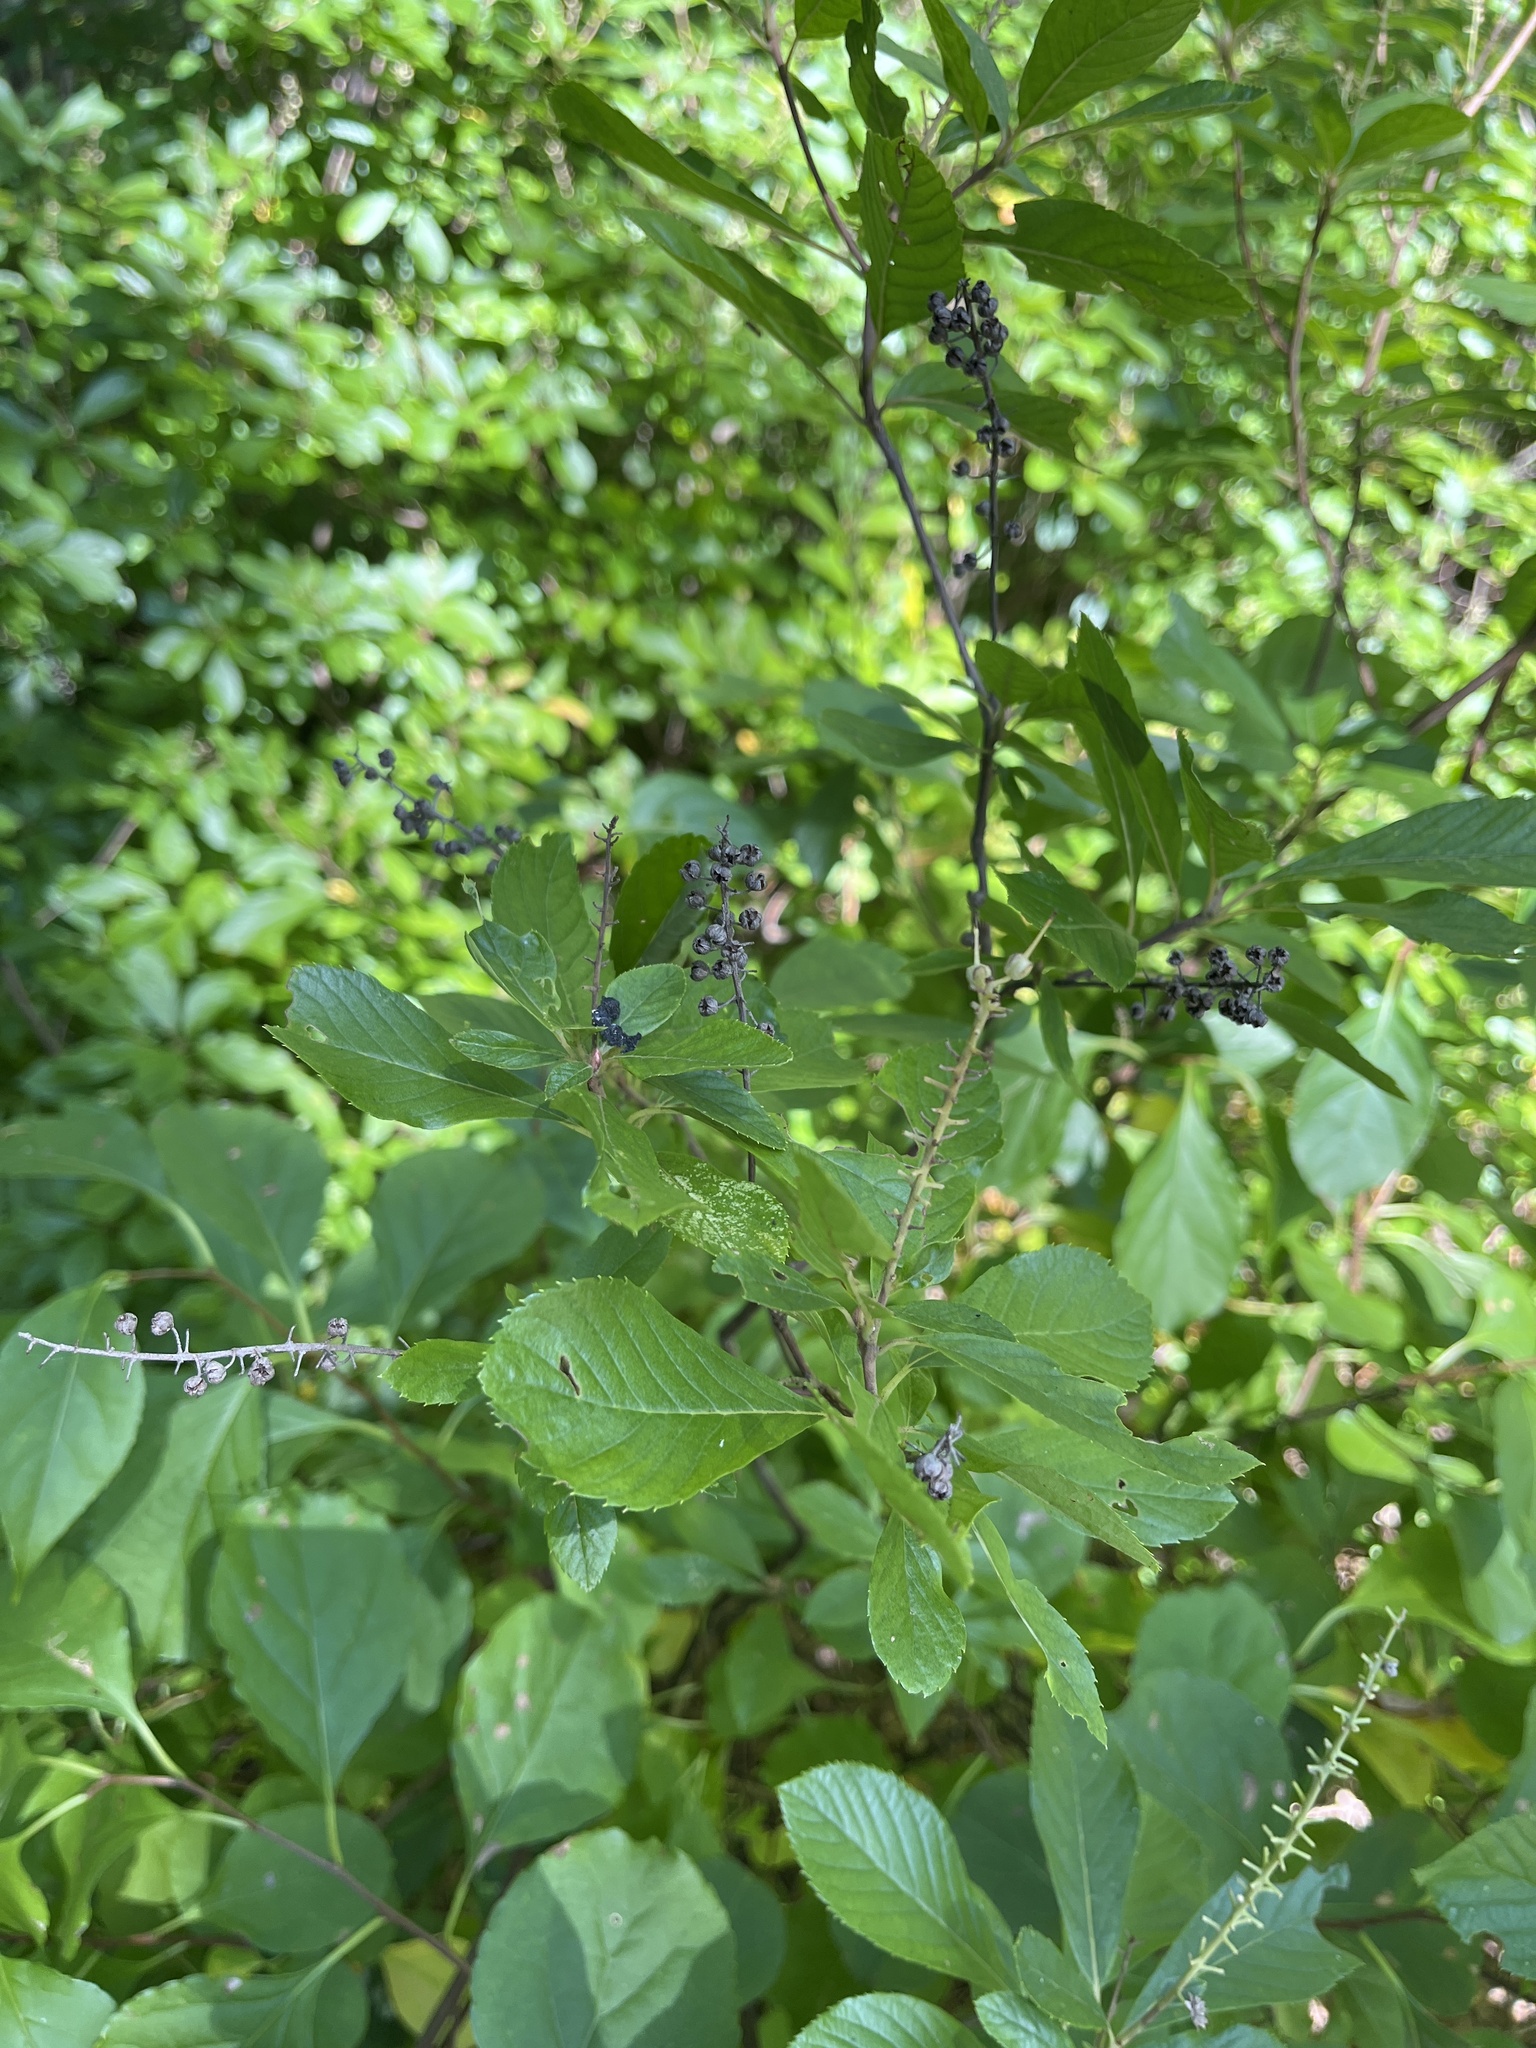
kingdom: Plantae
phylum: Tracheophyta
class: Magnoliopsida
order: Ericales
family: Clethraceae
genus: Clethra
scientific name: Clethra alnifolia
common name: Sweet pepperbush
